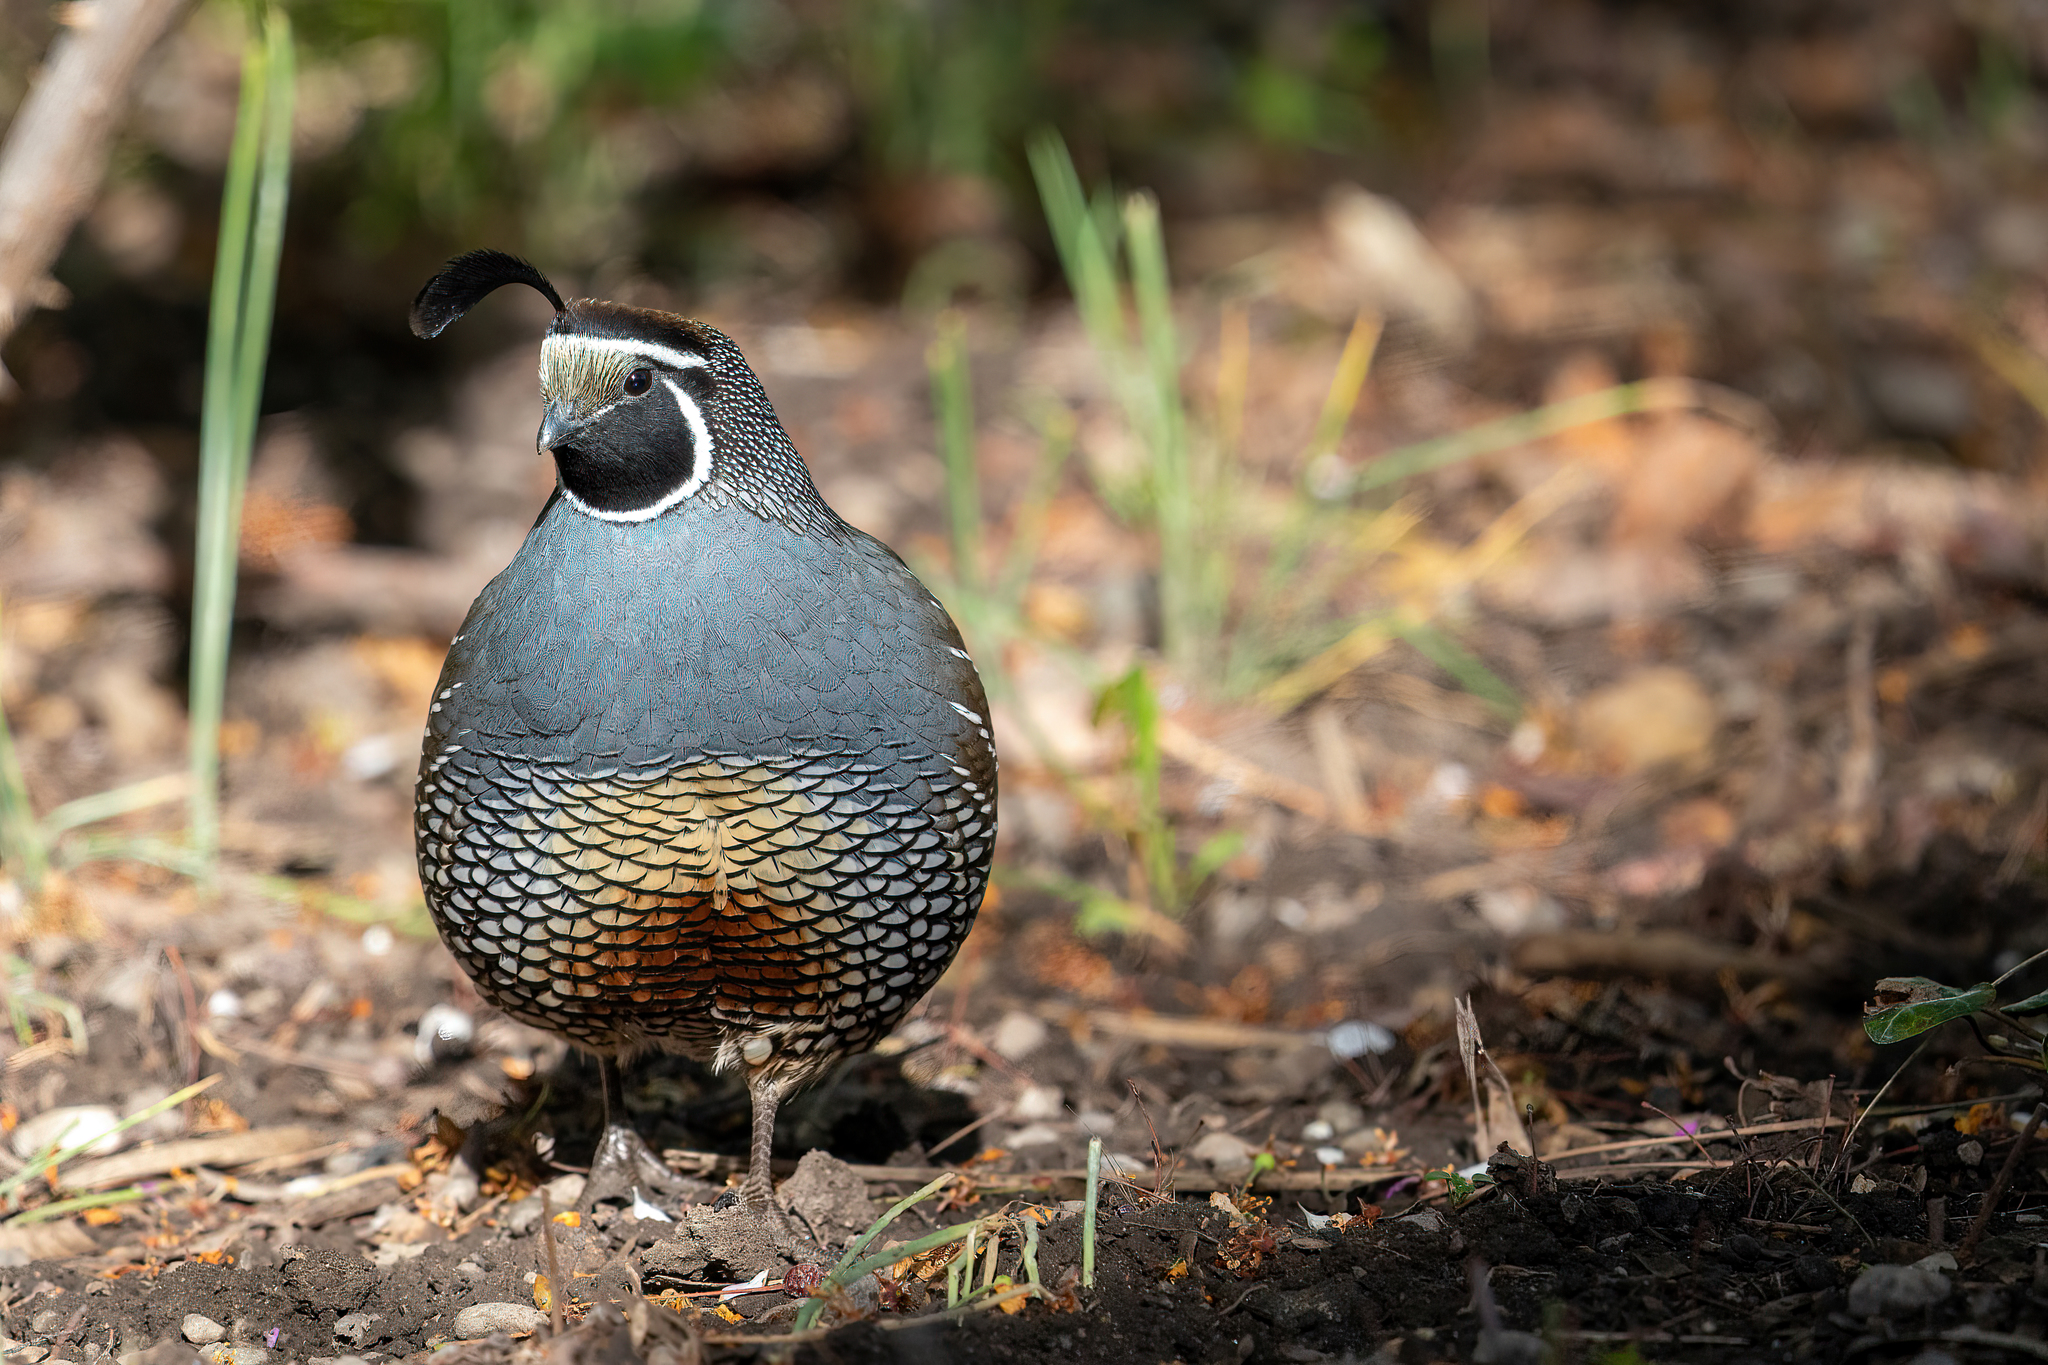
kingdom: Animalia
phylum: Chordata
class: Aves
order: Galliformes
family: Odontophoridae
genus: Callipepla
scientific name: Callipepla californica
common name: California quail
